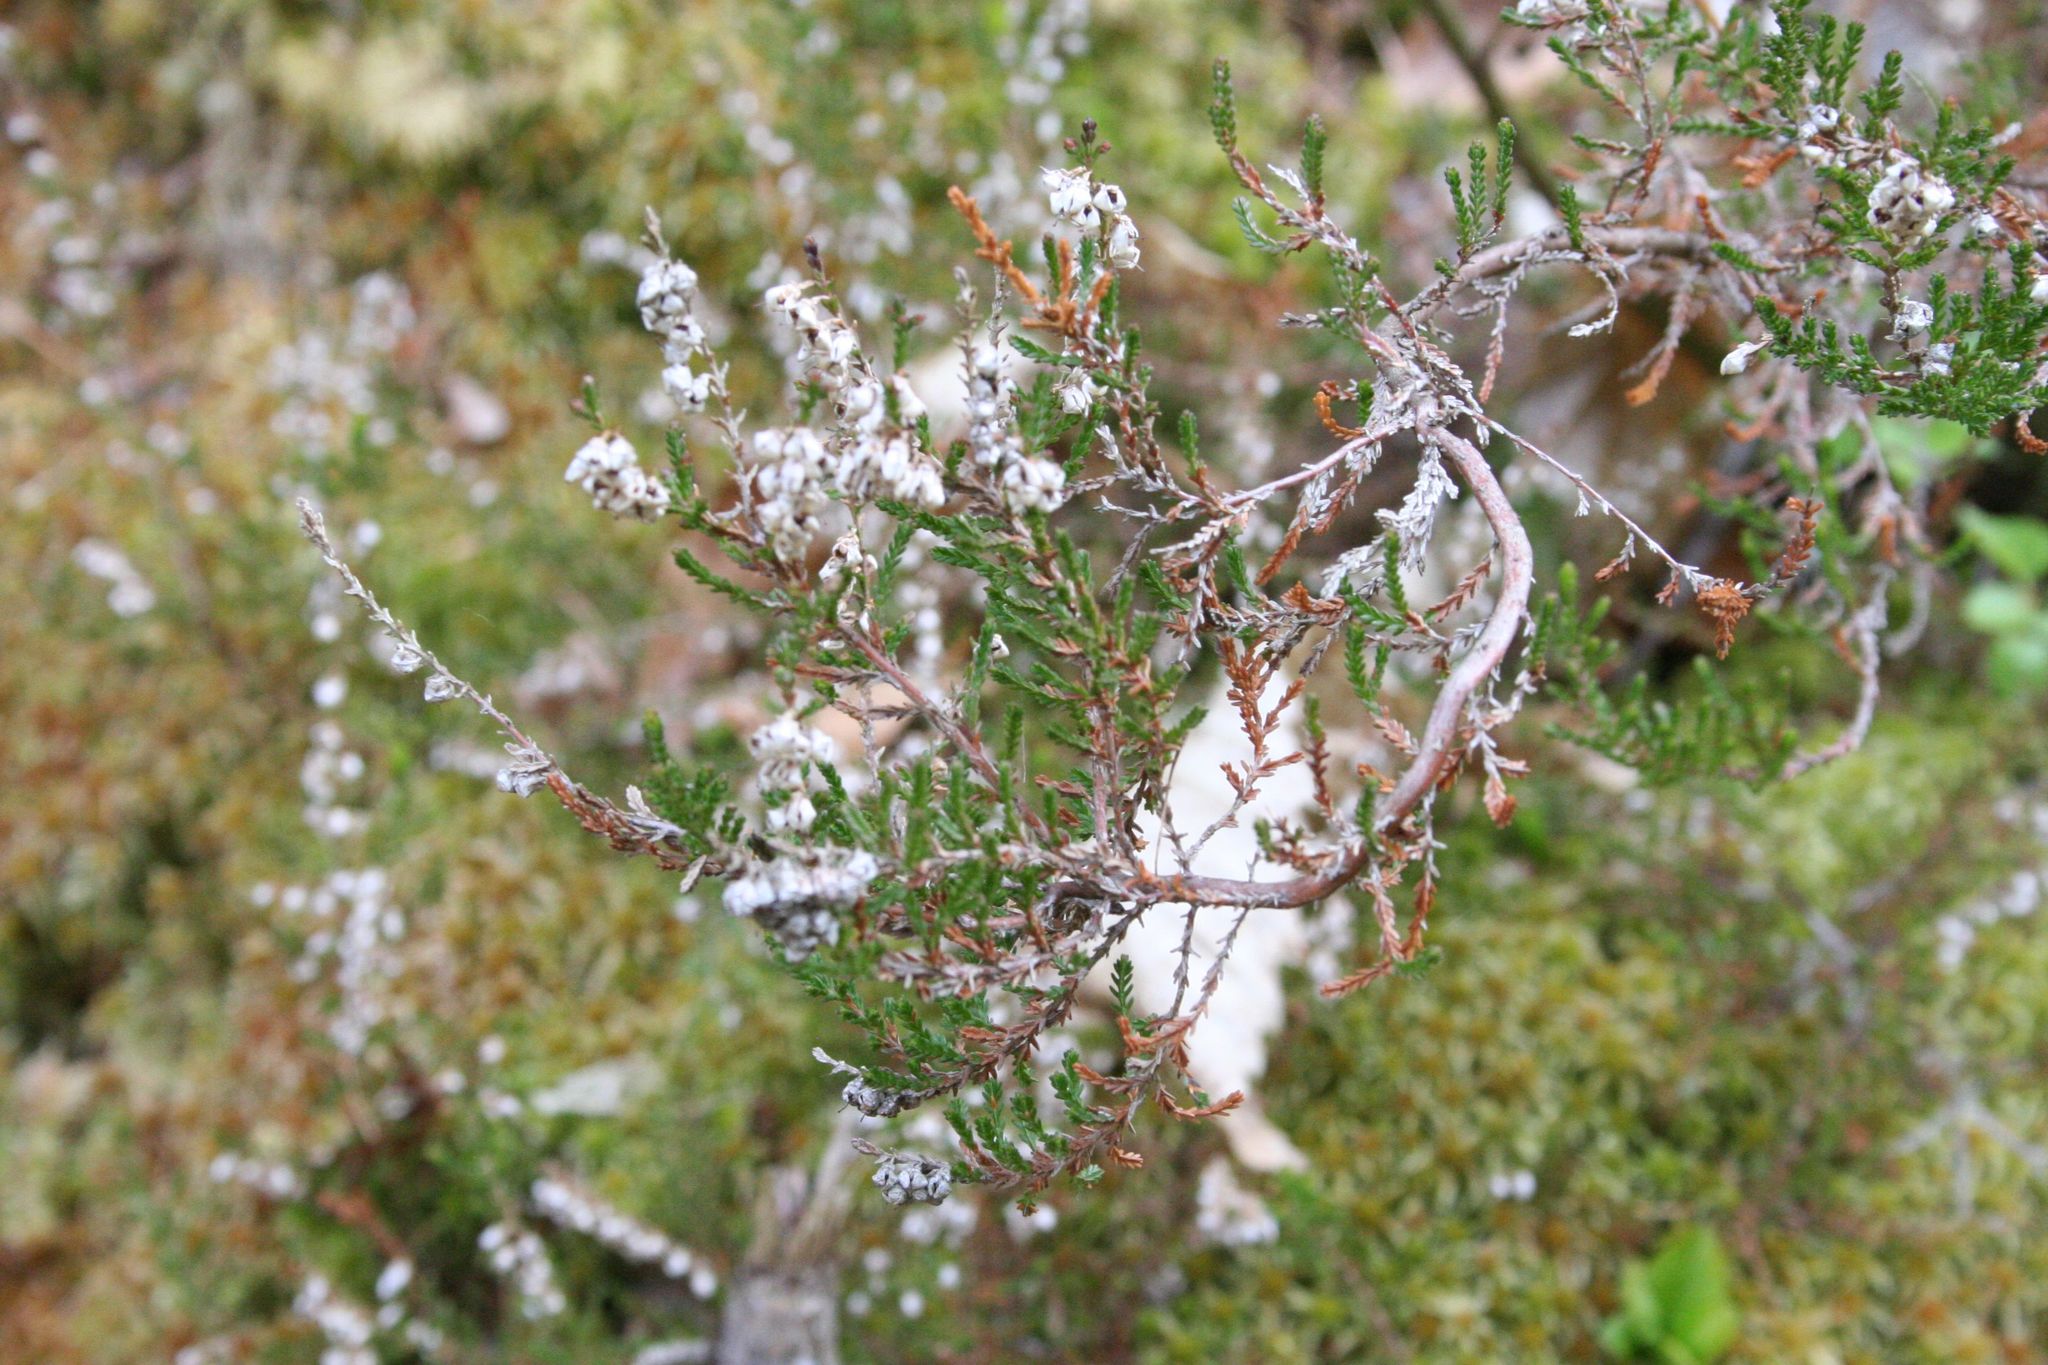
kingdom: Plantae
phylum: Tracheophyta
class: Magnoliopsida
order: Ericales
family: Ericaceae
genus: Calluna
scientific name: Calluna vulgaris
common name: Heather
